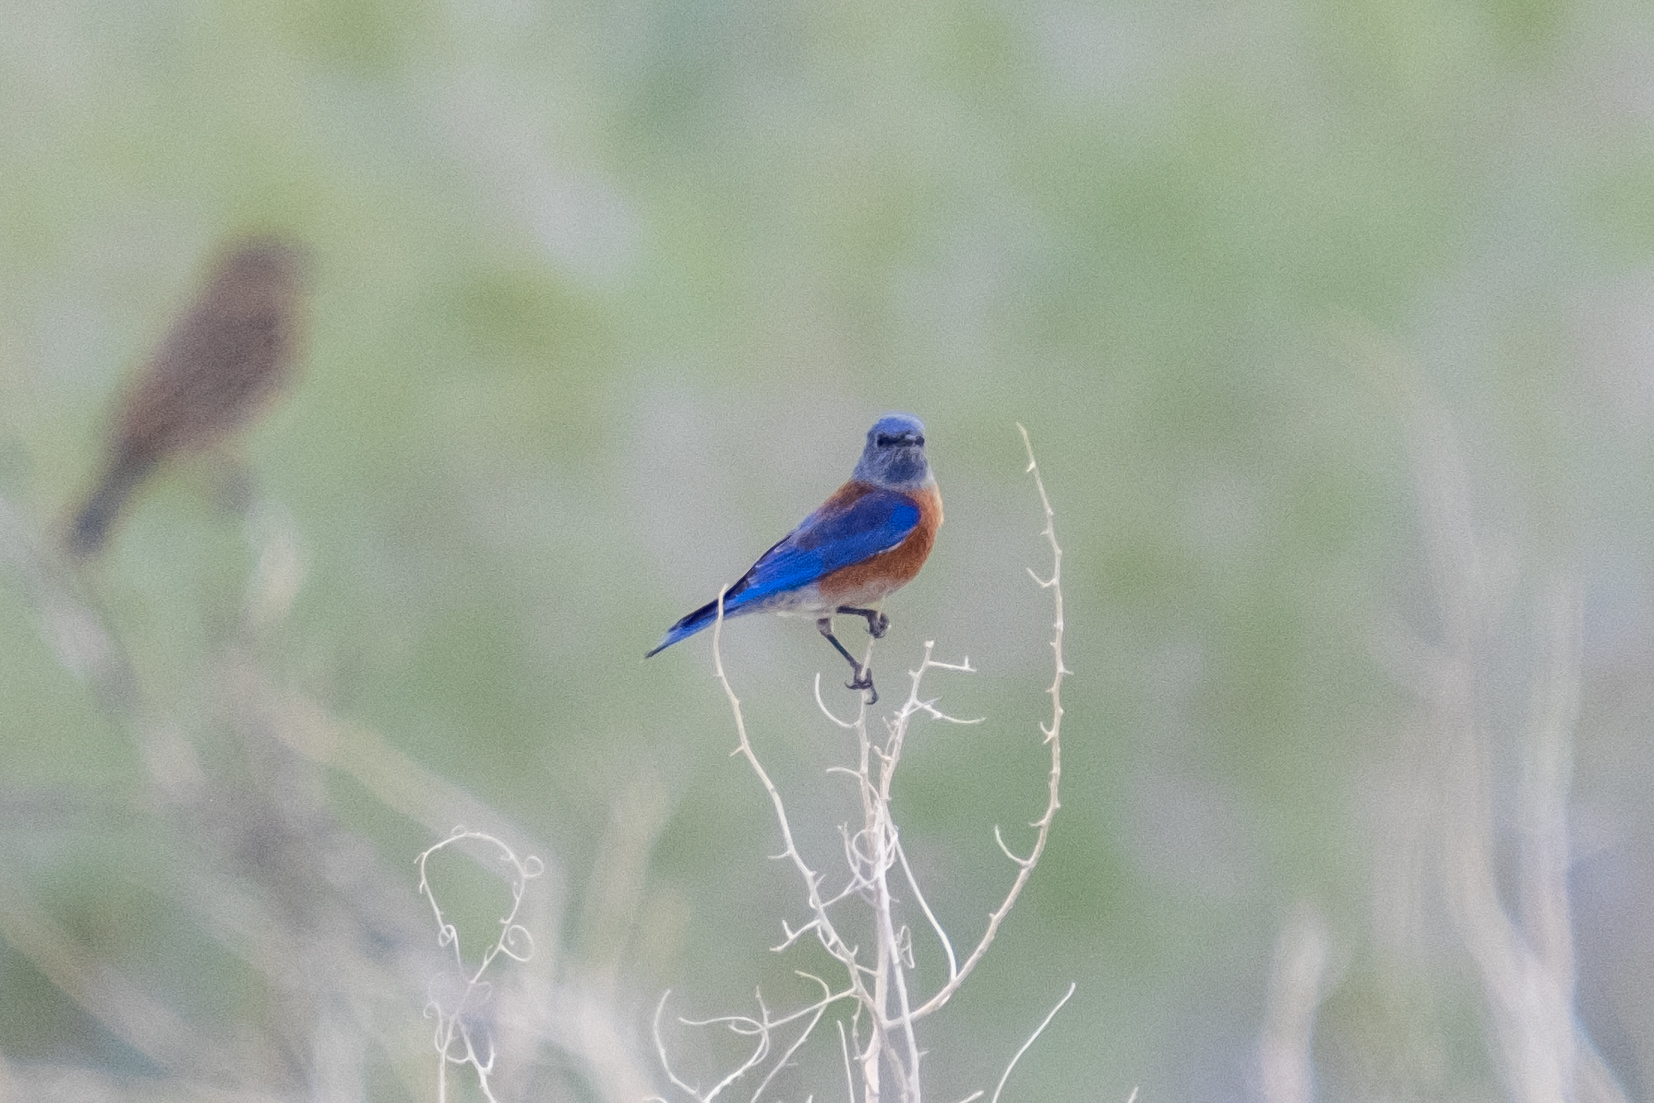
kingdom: Animalia
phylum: Chordata
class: Aves
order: Passeriformes
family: Turdidae
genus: Sialia
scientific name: Sialia mexicana
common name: Western bluebird
